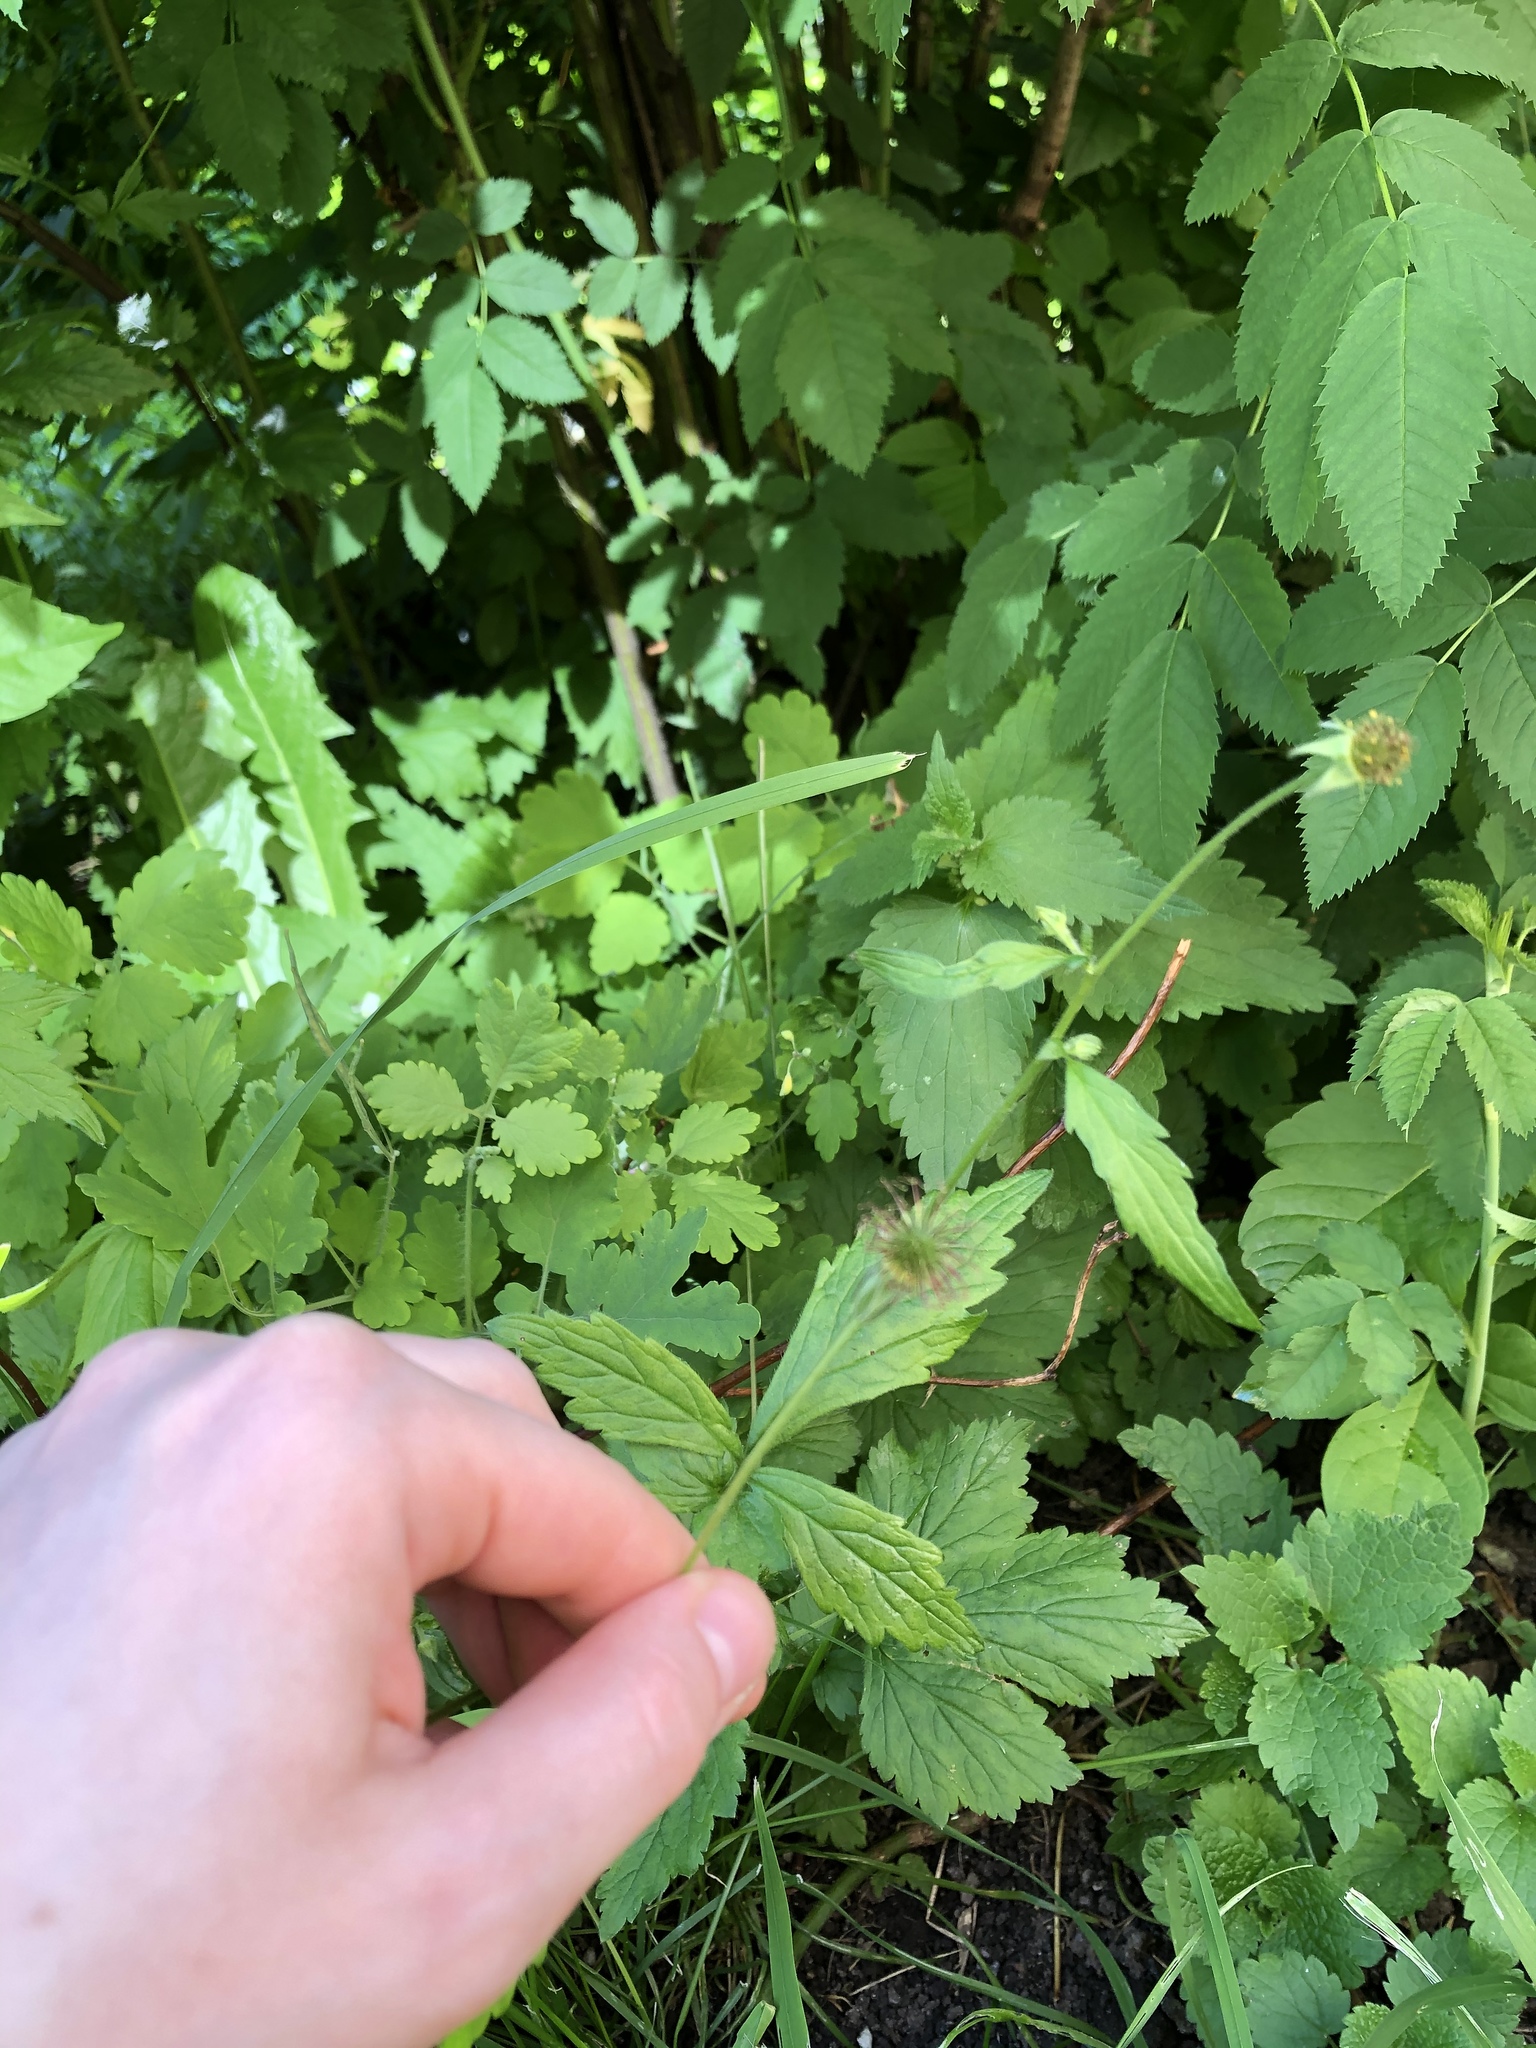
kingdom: Plantae
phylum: Tracheophyta
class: Magnoliopsida
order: Rosales
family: Rosaceae
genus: Geum
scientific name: Geum urbanum
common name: Wood avens
